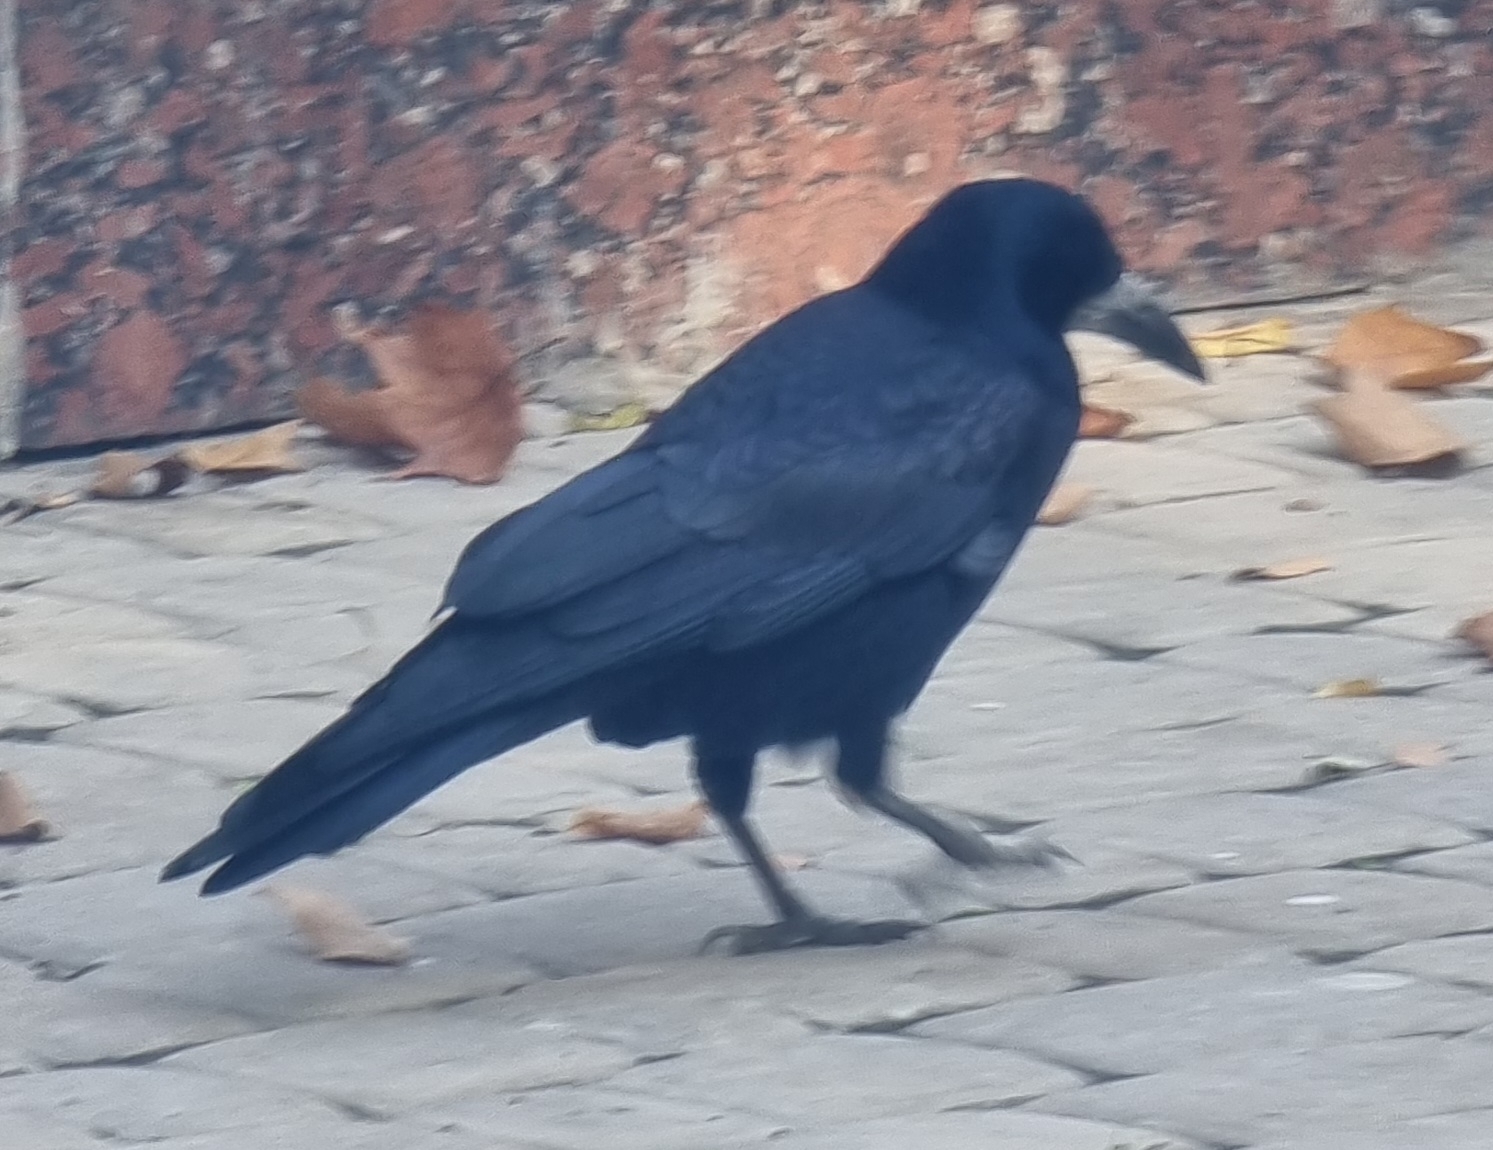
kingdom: Animalia
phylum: Chordata
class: Aves
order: Passeriformes
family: Corvidae
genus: Corvus
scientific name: Corvus frugilegus
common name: Rook
